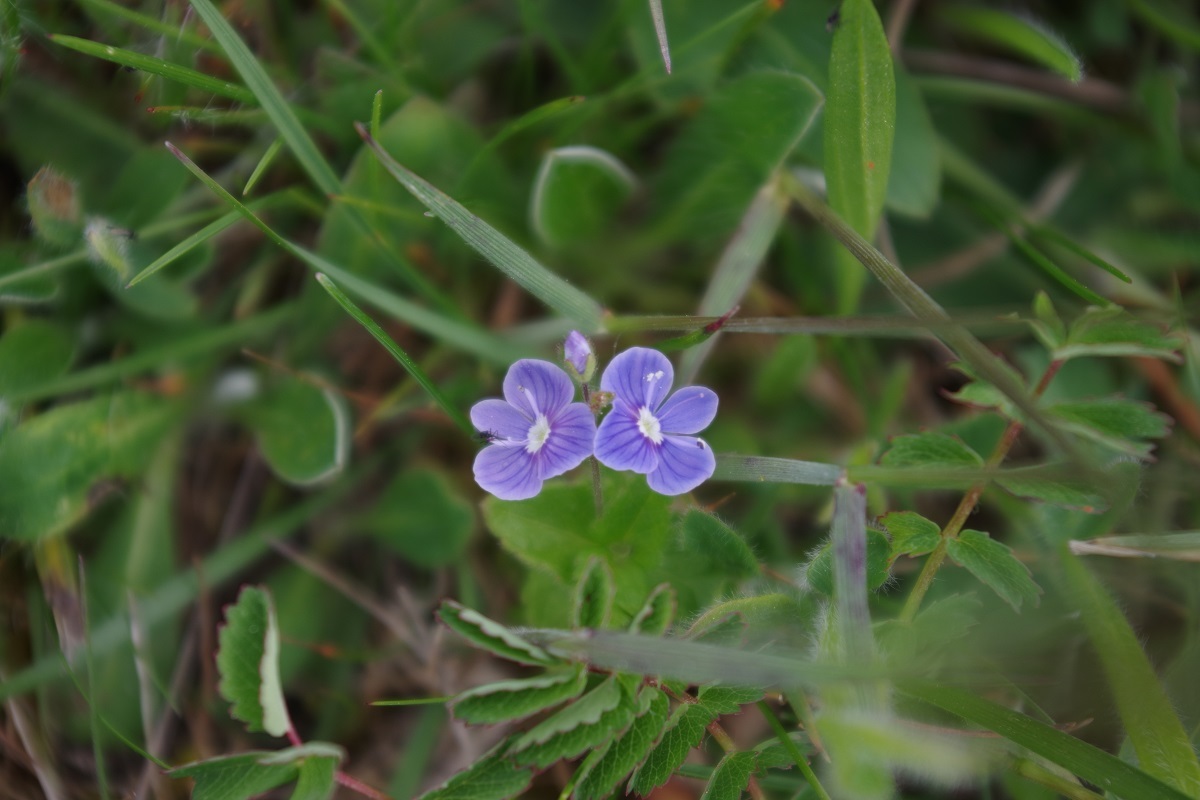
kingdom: Plantae
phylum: Tracheophyta
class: Magnoliopsida
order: Lamiales
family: Plantaginaceae
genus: Veronica
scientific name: Veronica chamaedrys
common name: Germander speedwell
